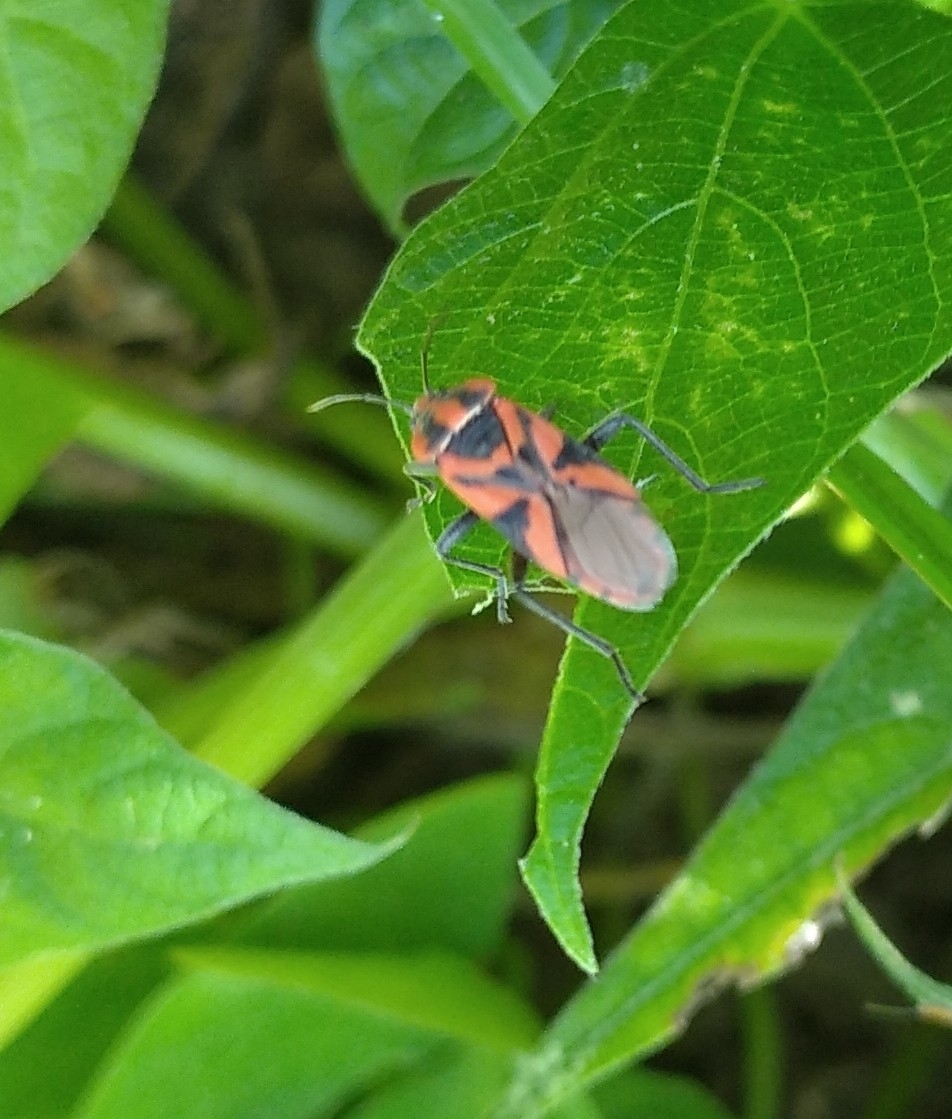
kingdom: Animalia
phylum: Arthropoda
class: Insecta
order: Hemiptera
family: Lygaeidae
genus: Spilostethus
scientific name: Spilostethus furcula
